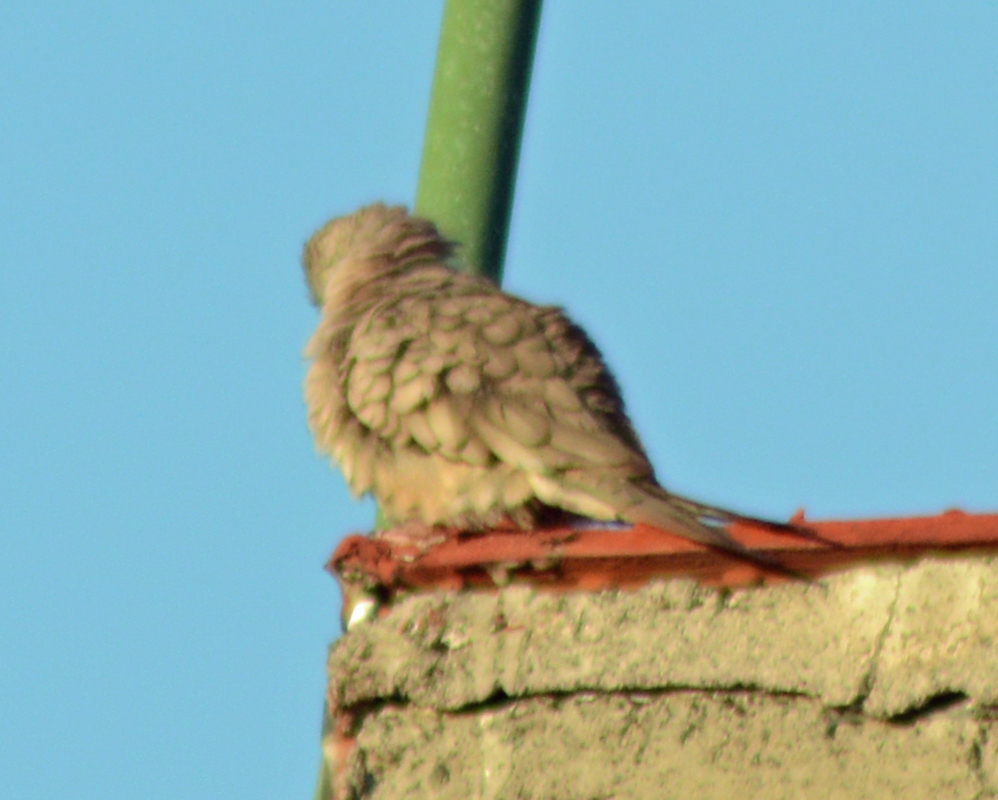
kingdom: Animalia
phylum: Chordata
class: Aves
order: Columbiformes
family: Columbidae
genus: Columbina
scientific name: Columbina inca
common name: Inca dove
